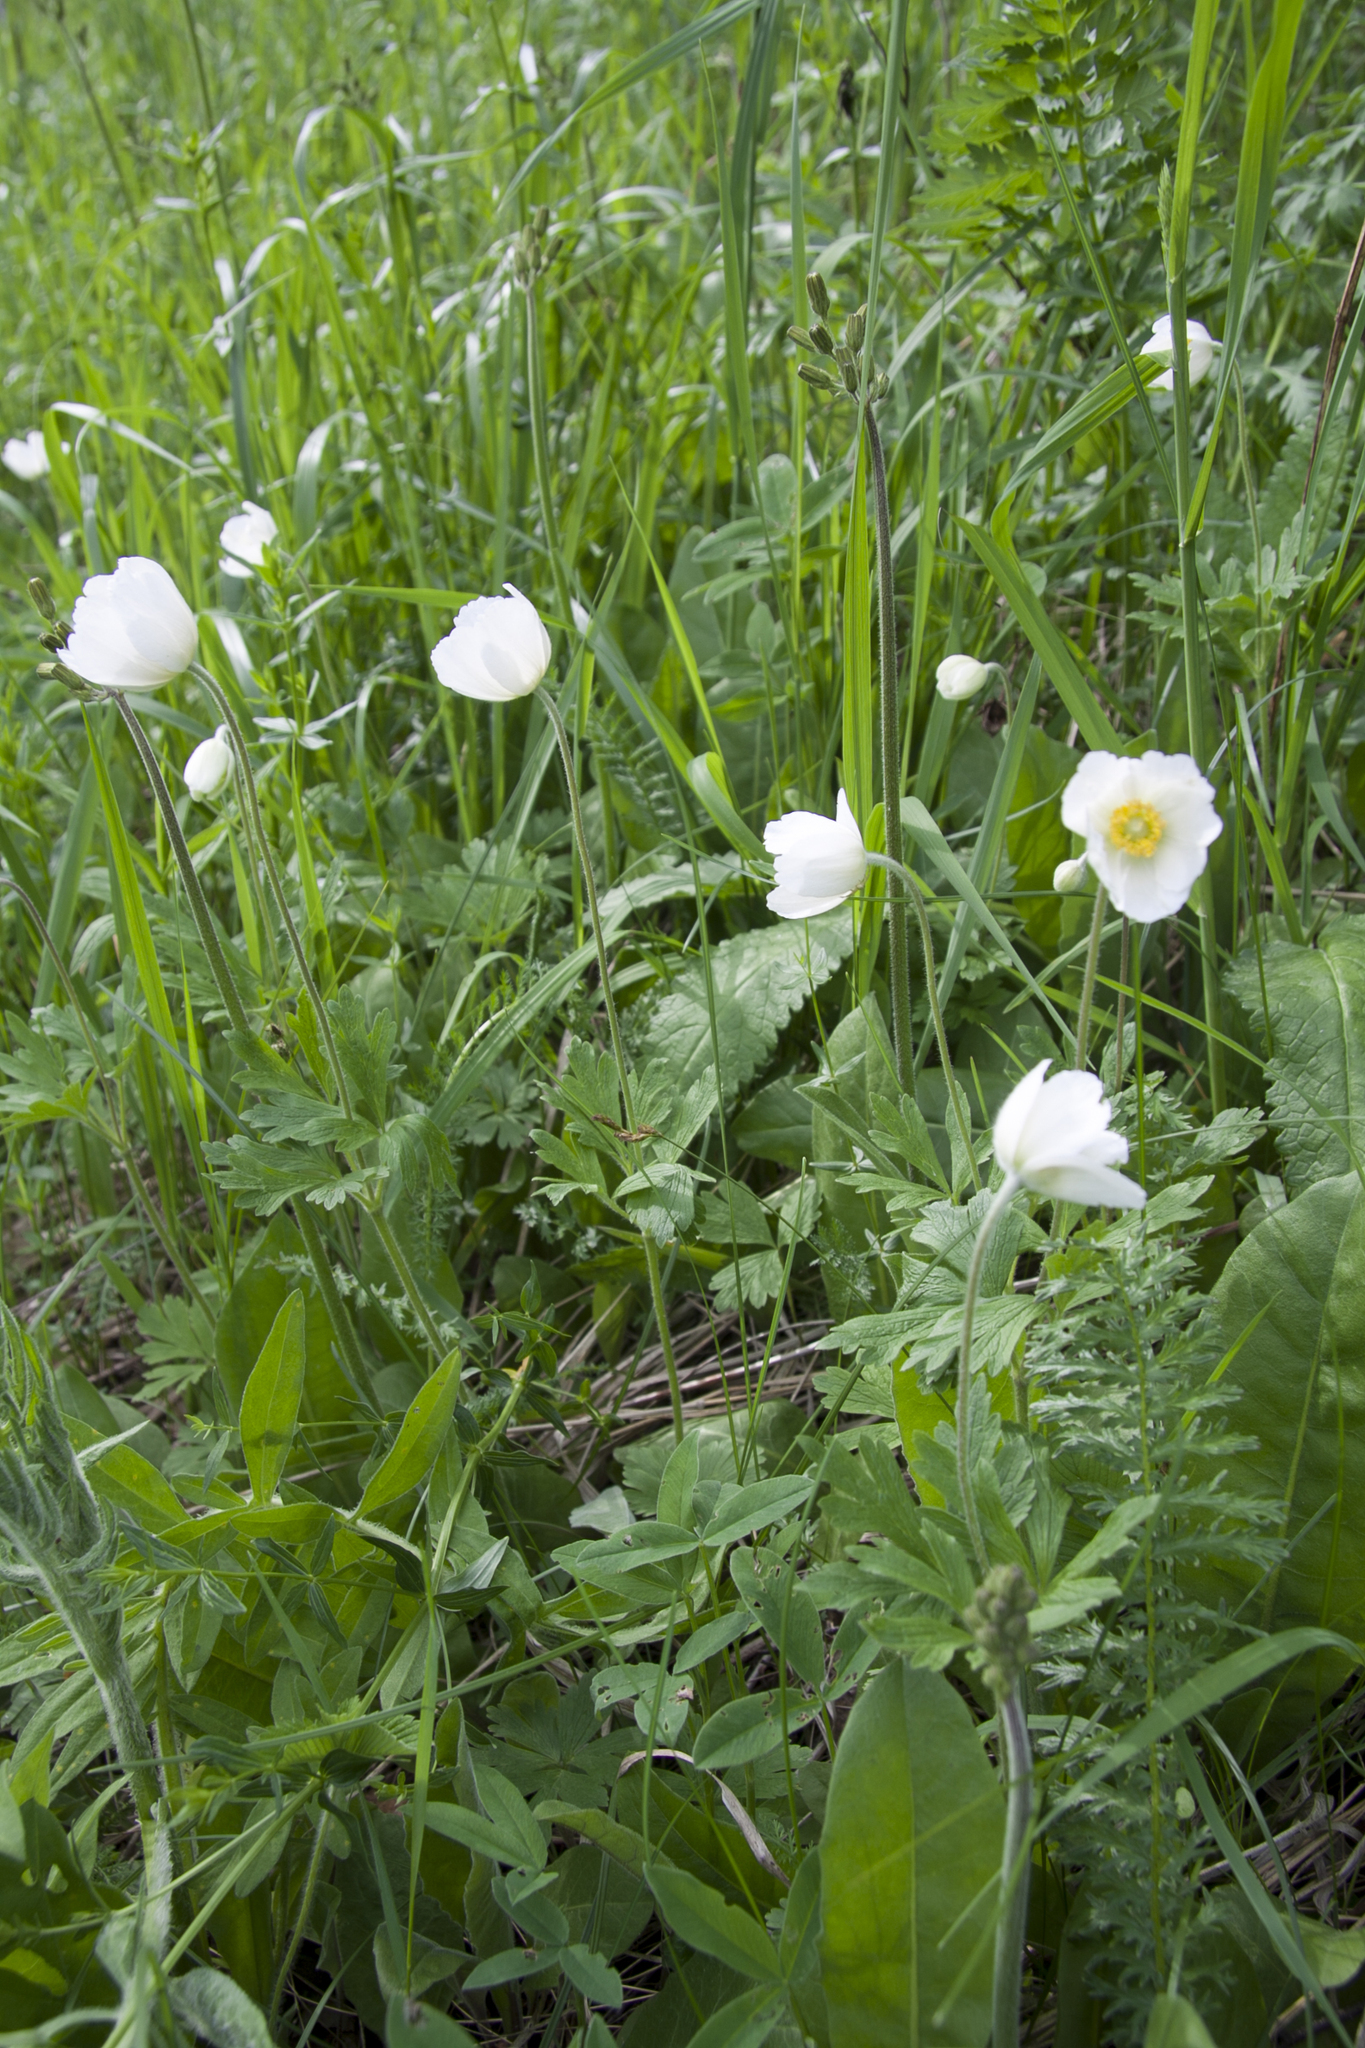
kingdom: Plantae
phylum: Tracheophyta
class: Magnoliopsida
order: Ranunculales
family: Ranunculaceae
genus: Anemone
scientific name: Anemone sylvestris
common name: Snowdrop anemone
